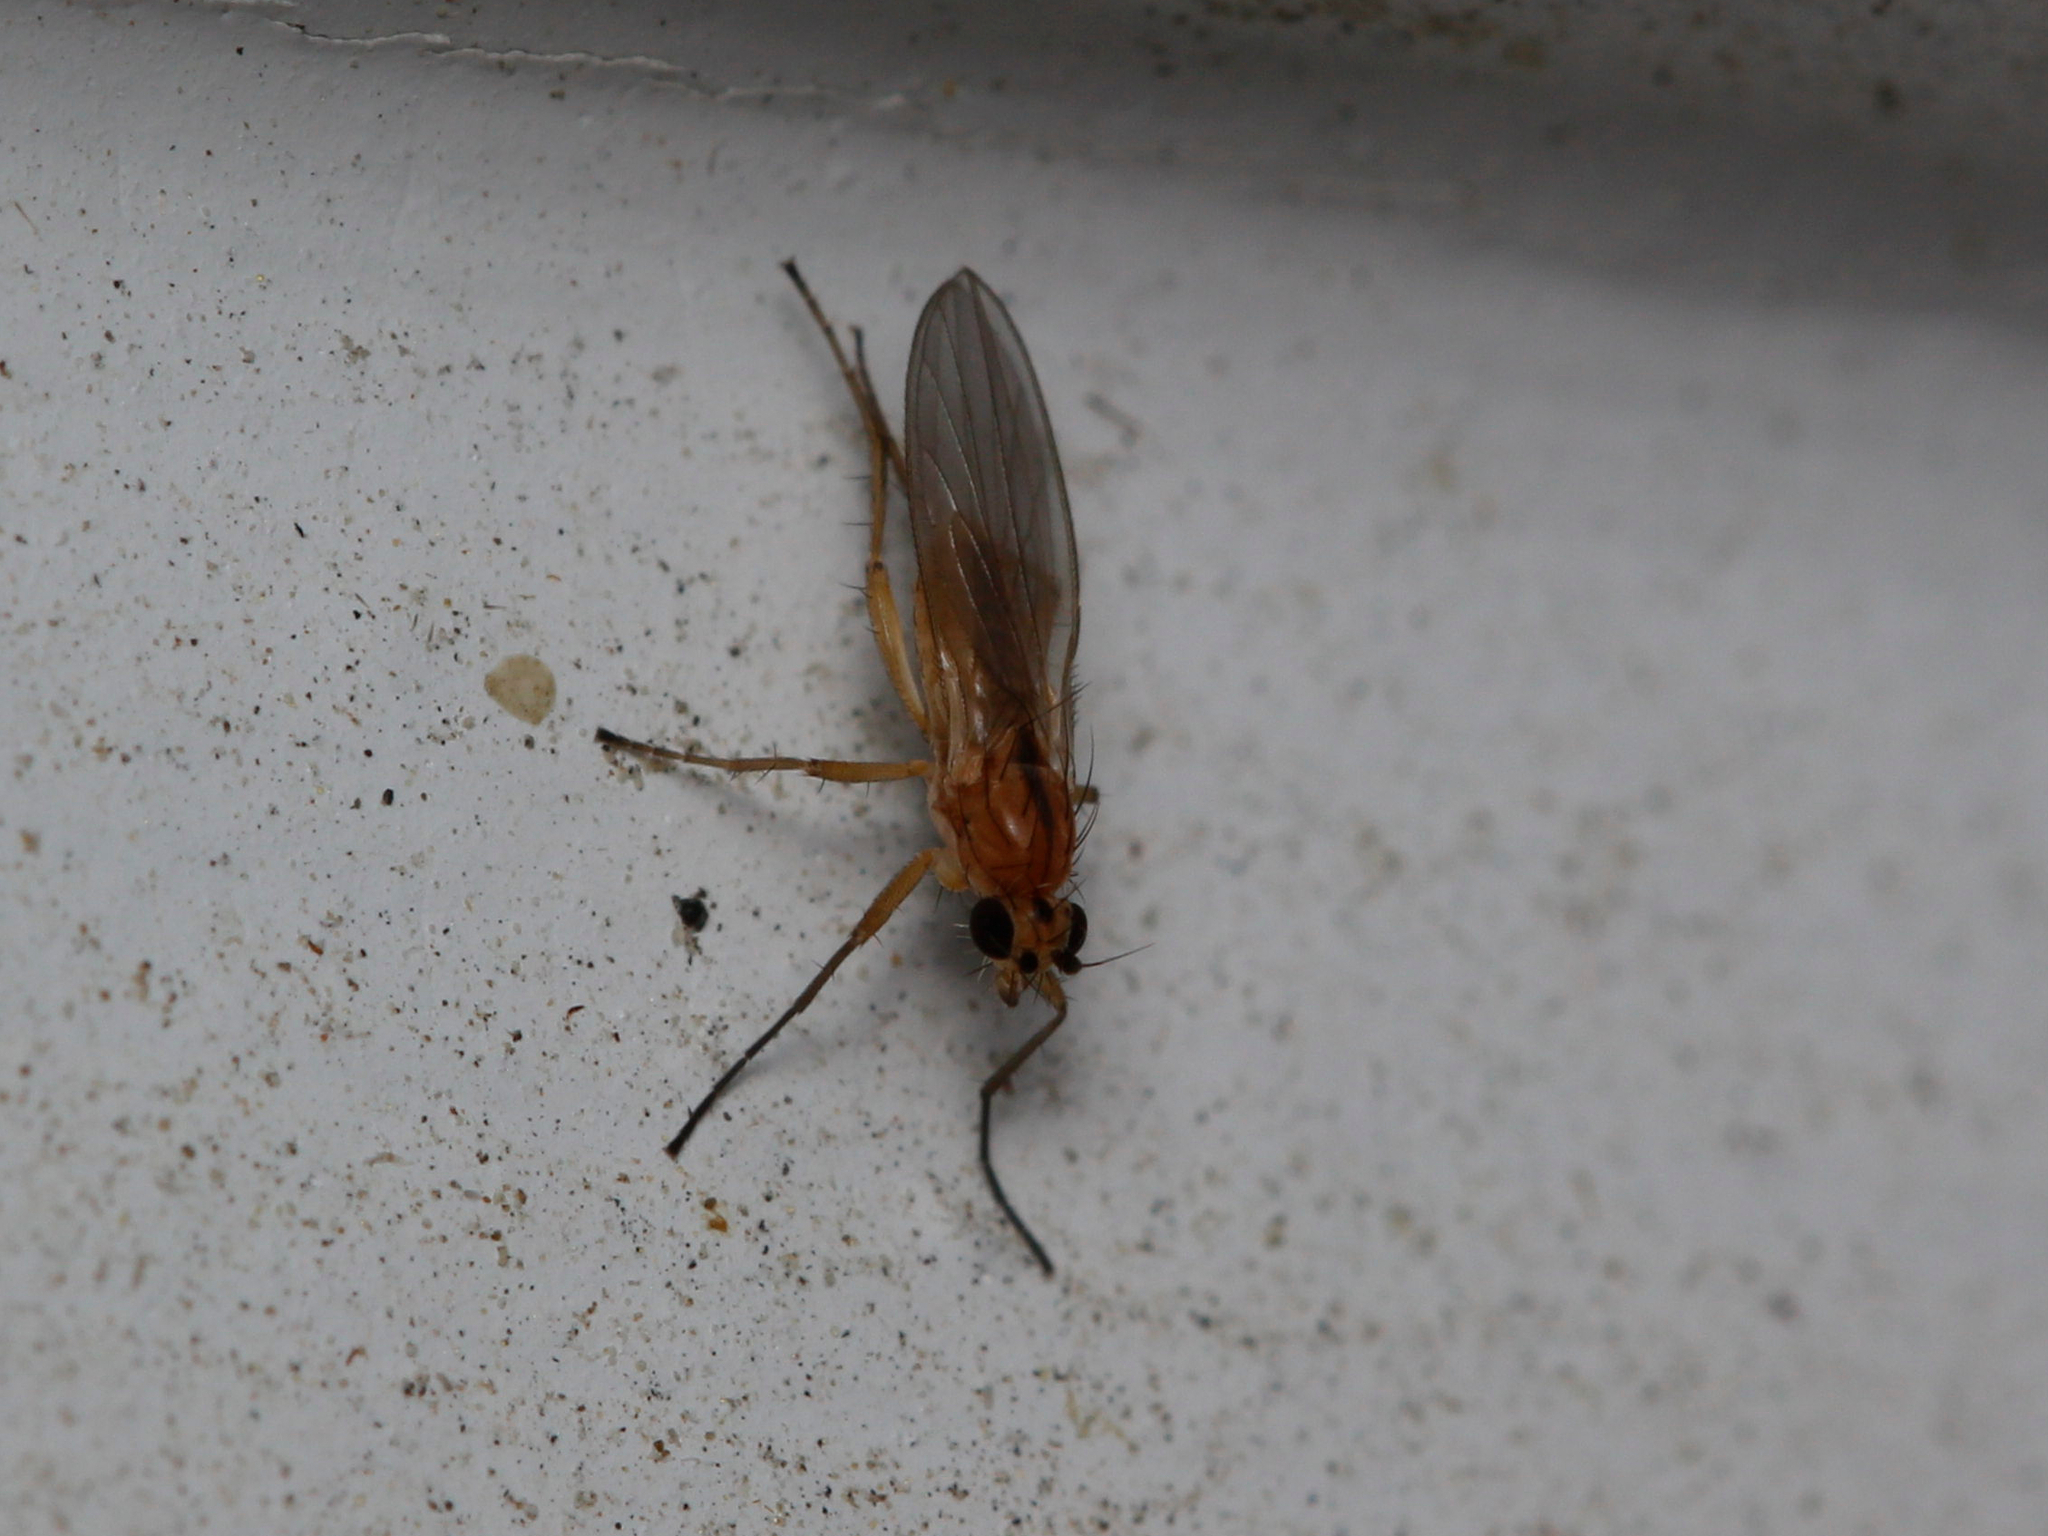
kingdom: Animalia
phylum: Arthropoda
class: Insecta
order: Diptera
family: Lonchopteridae
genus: Lonchoptera
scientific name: Lonchoptera bifurcata
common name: Spear-winged fly
